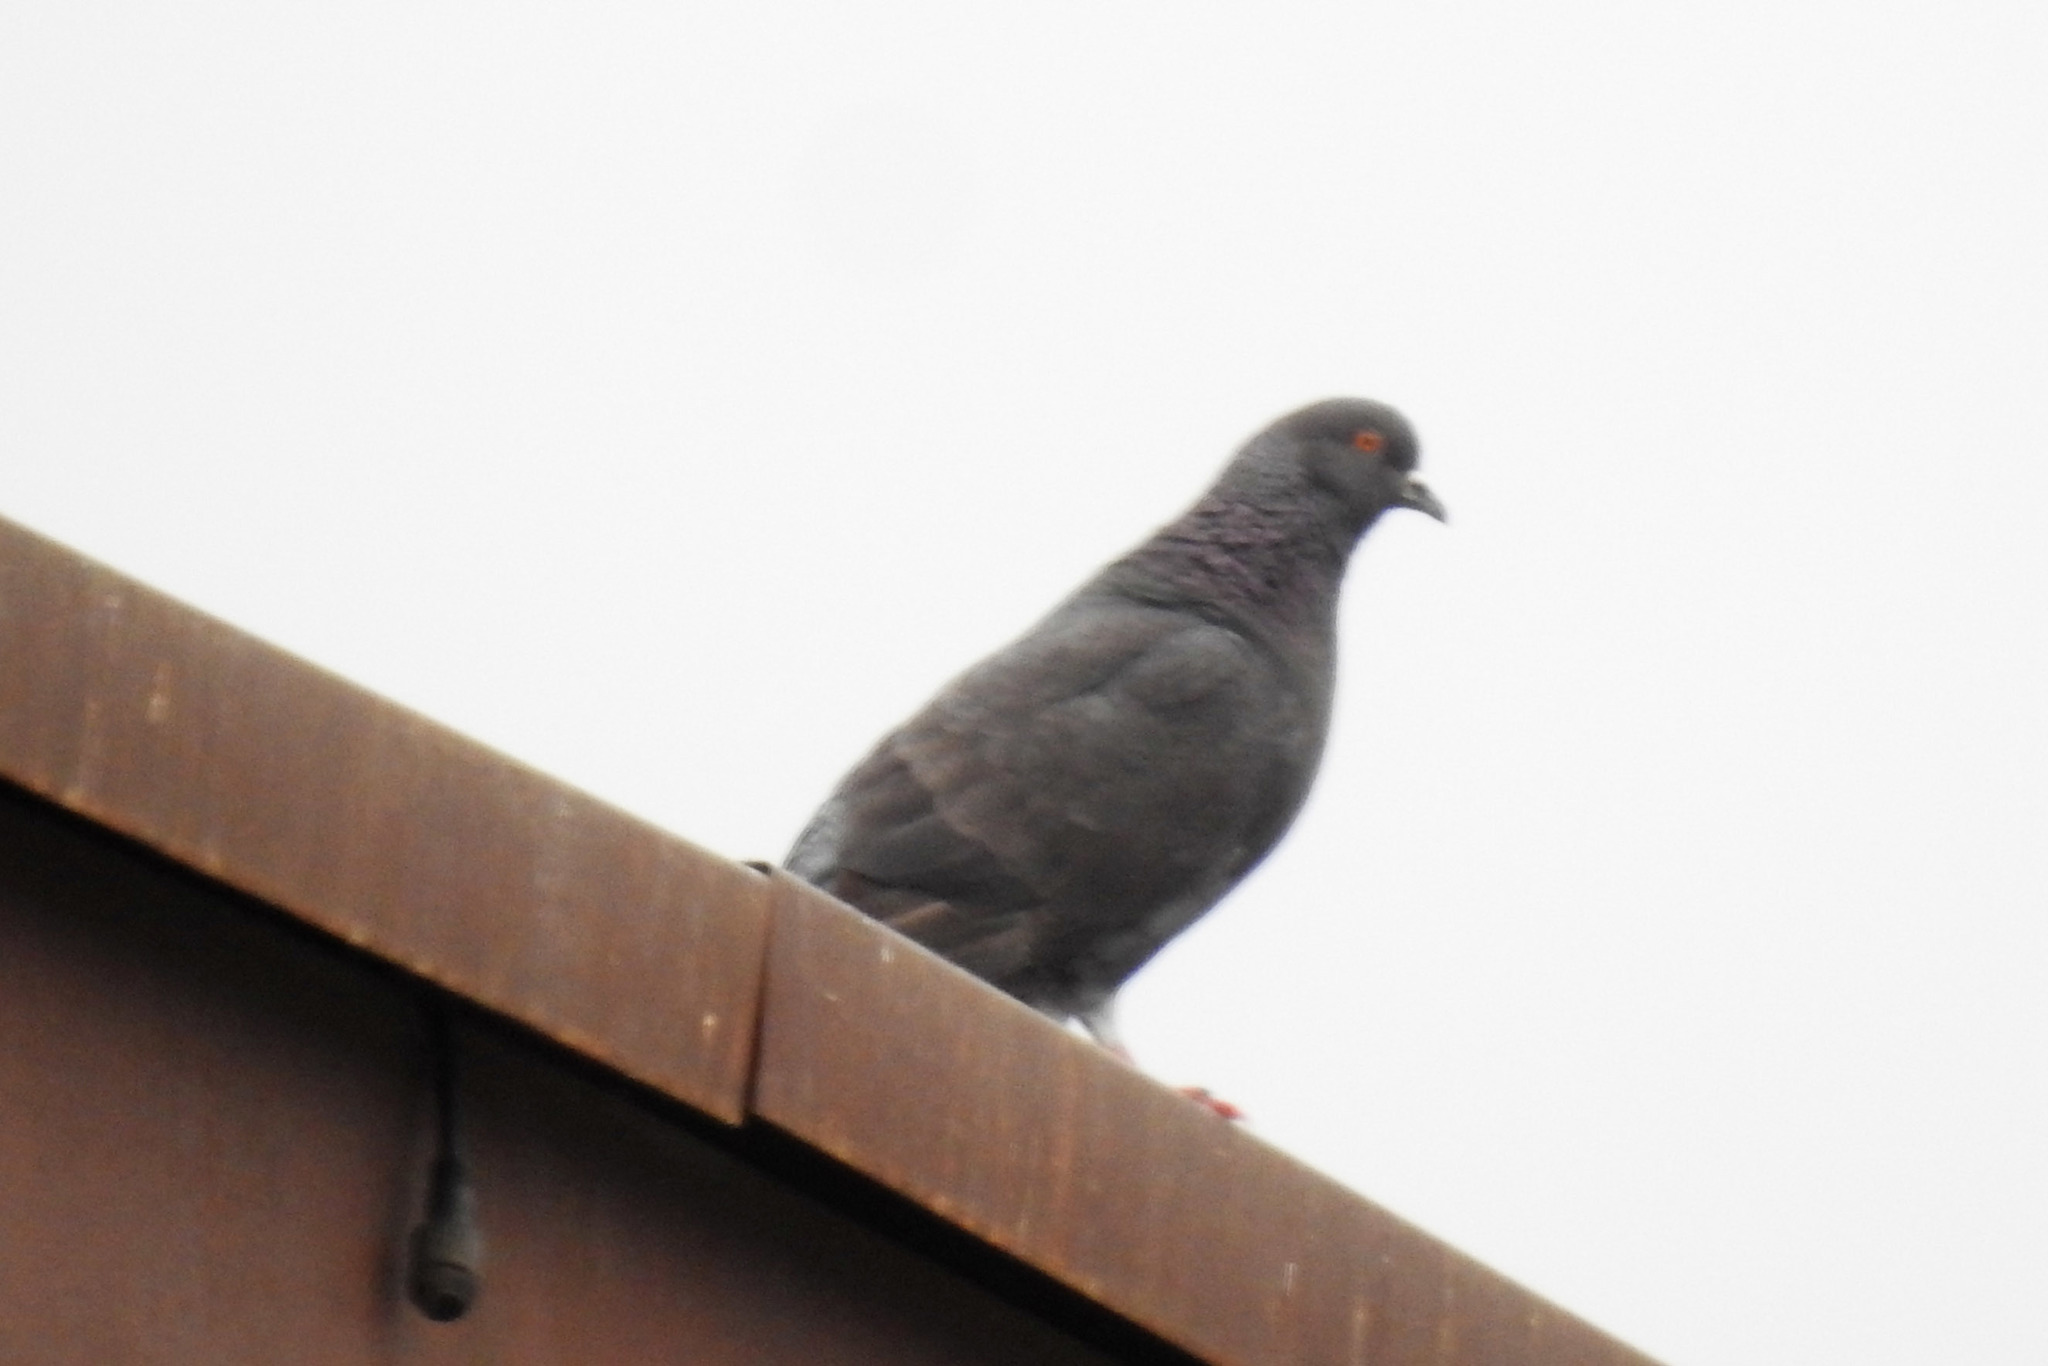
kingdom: Animalia
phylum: Chordata
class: Aves
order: Columbiformes
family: Columbidae
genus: Columba
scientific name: Columba livia
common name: Rock pigeon
